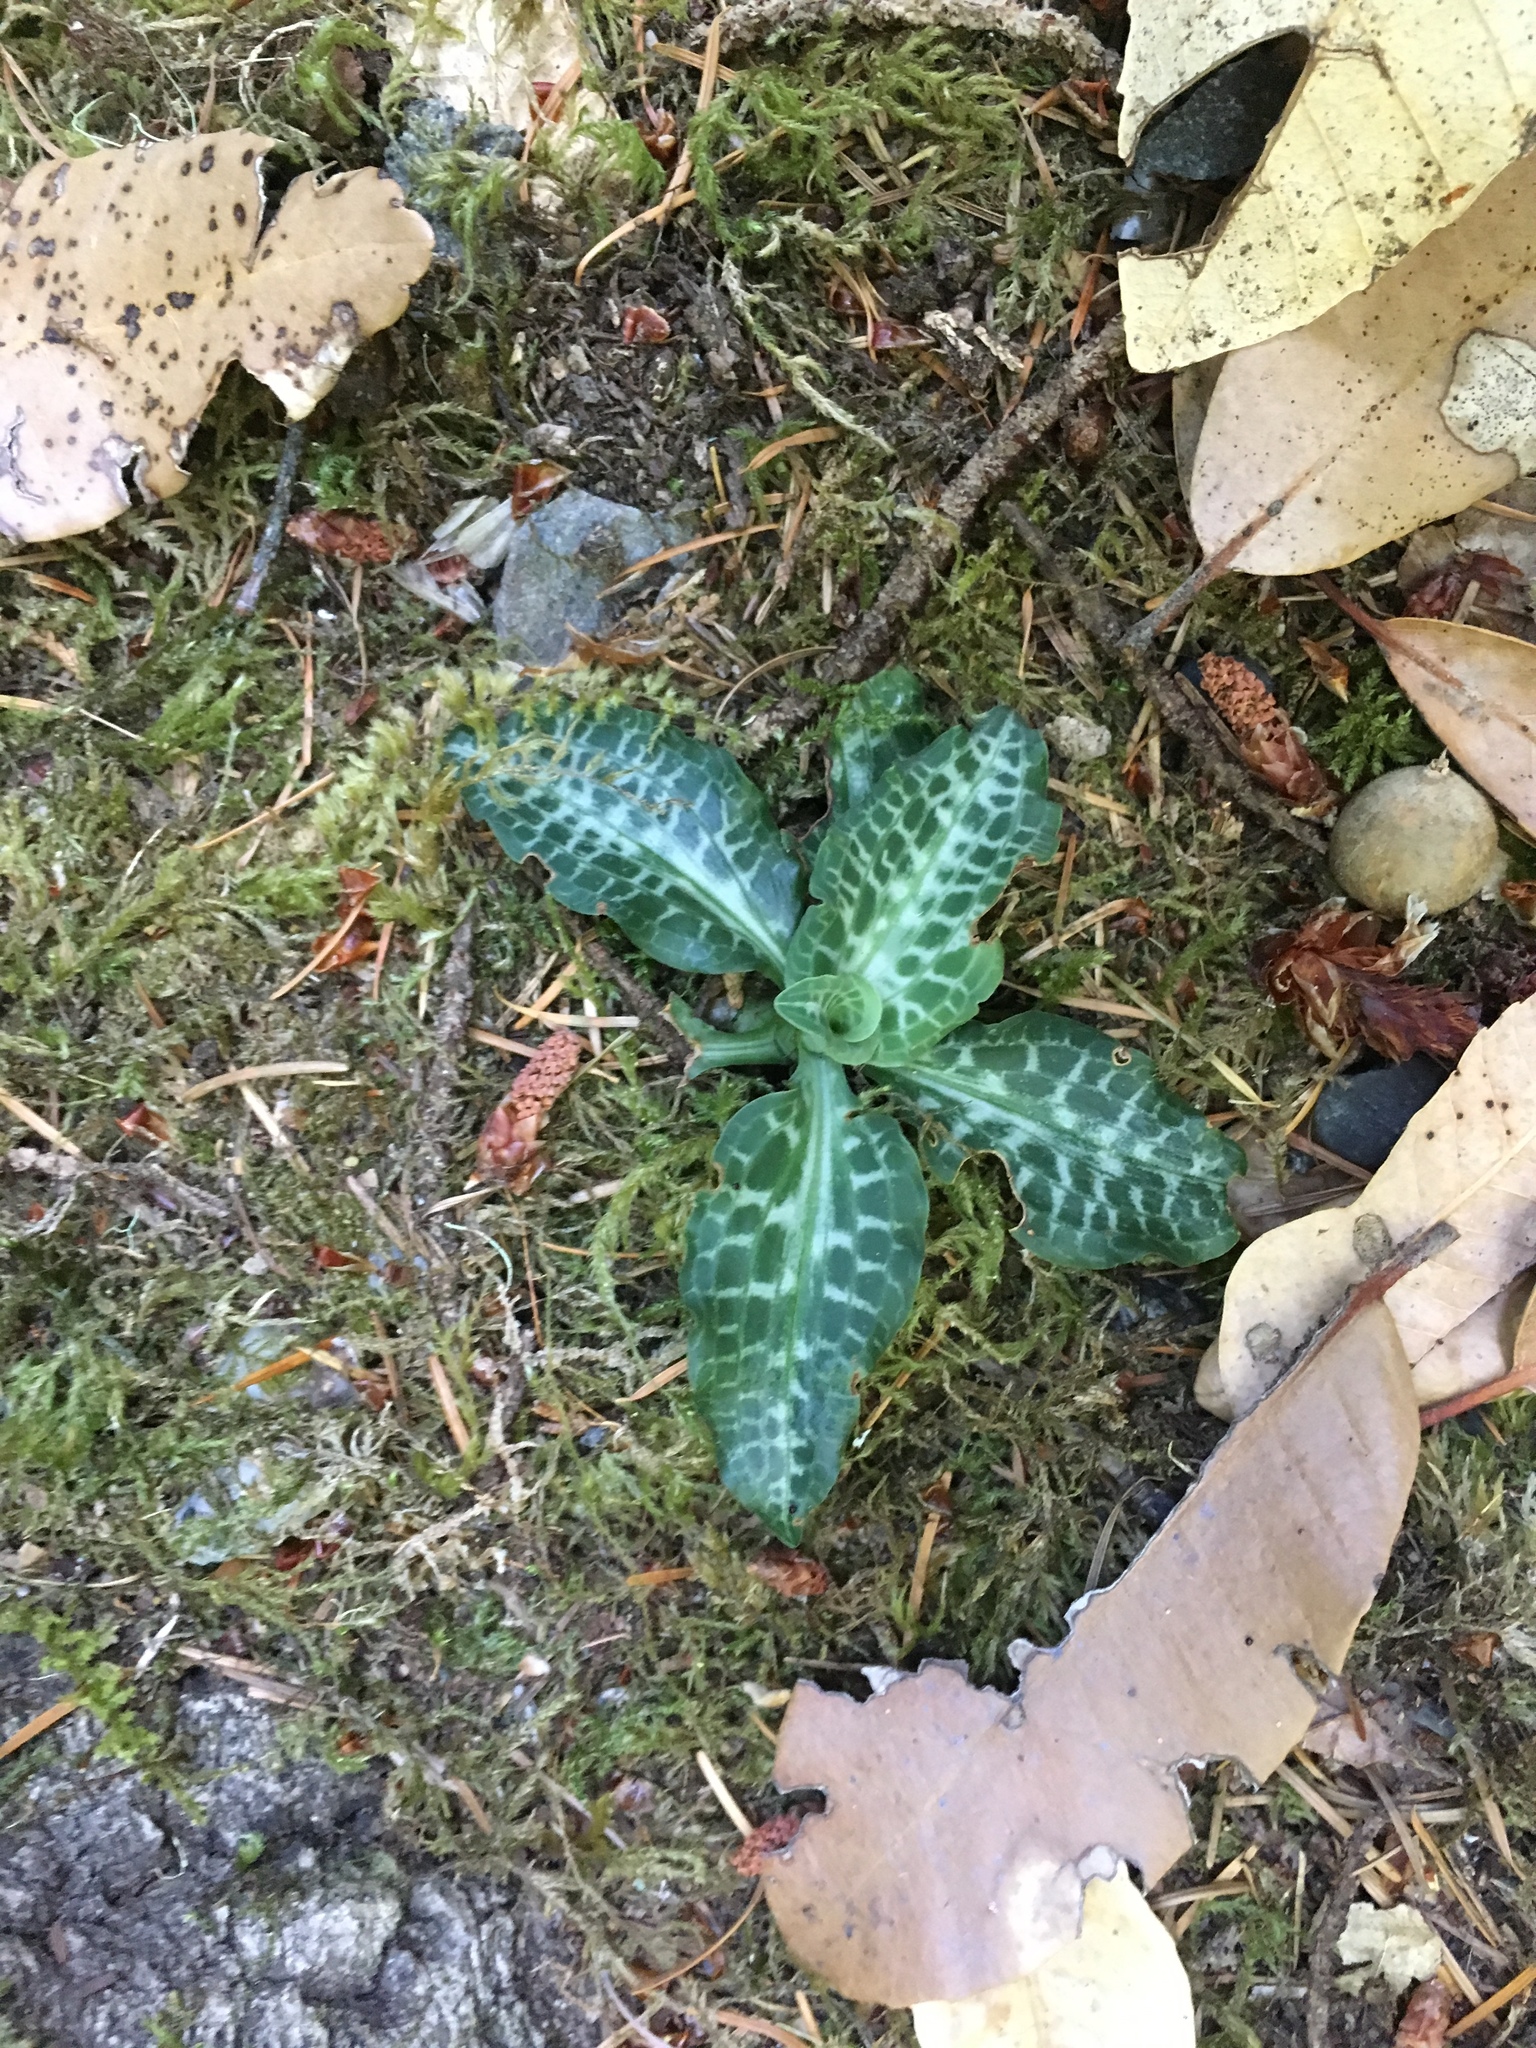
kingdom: Plantae
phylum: Tracheophyta
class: Liliopsida
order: Asparagales
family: Orchidaceae
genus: Goodyera
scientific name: Goodyera oblongifolia
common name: Giant rattlesnake-plantain
